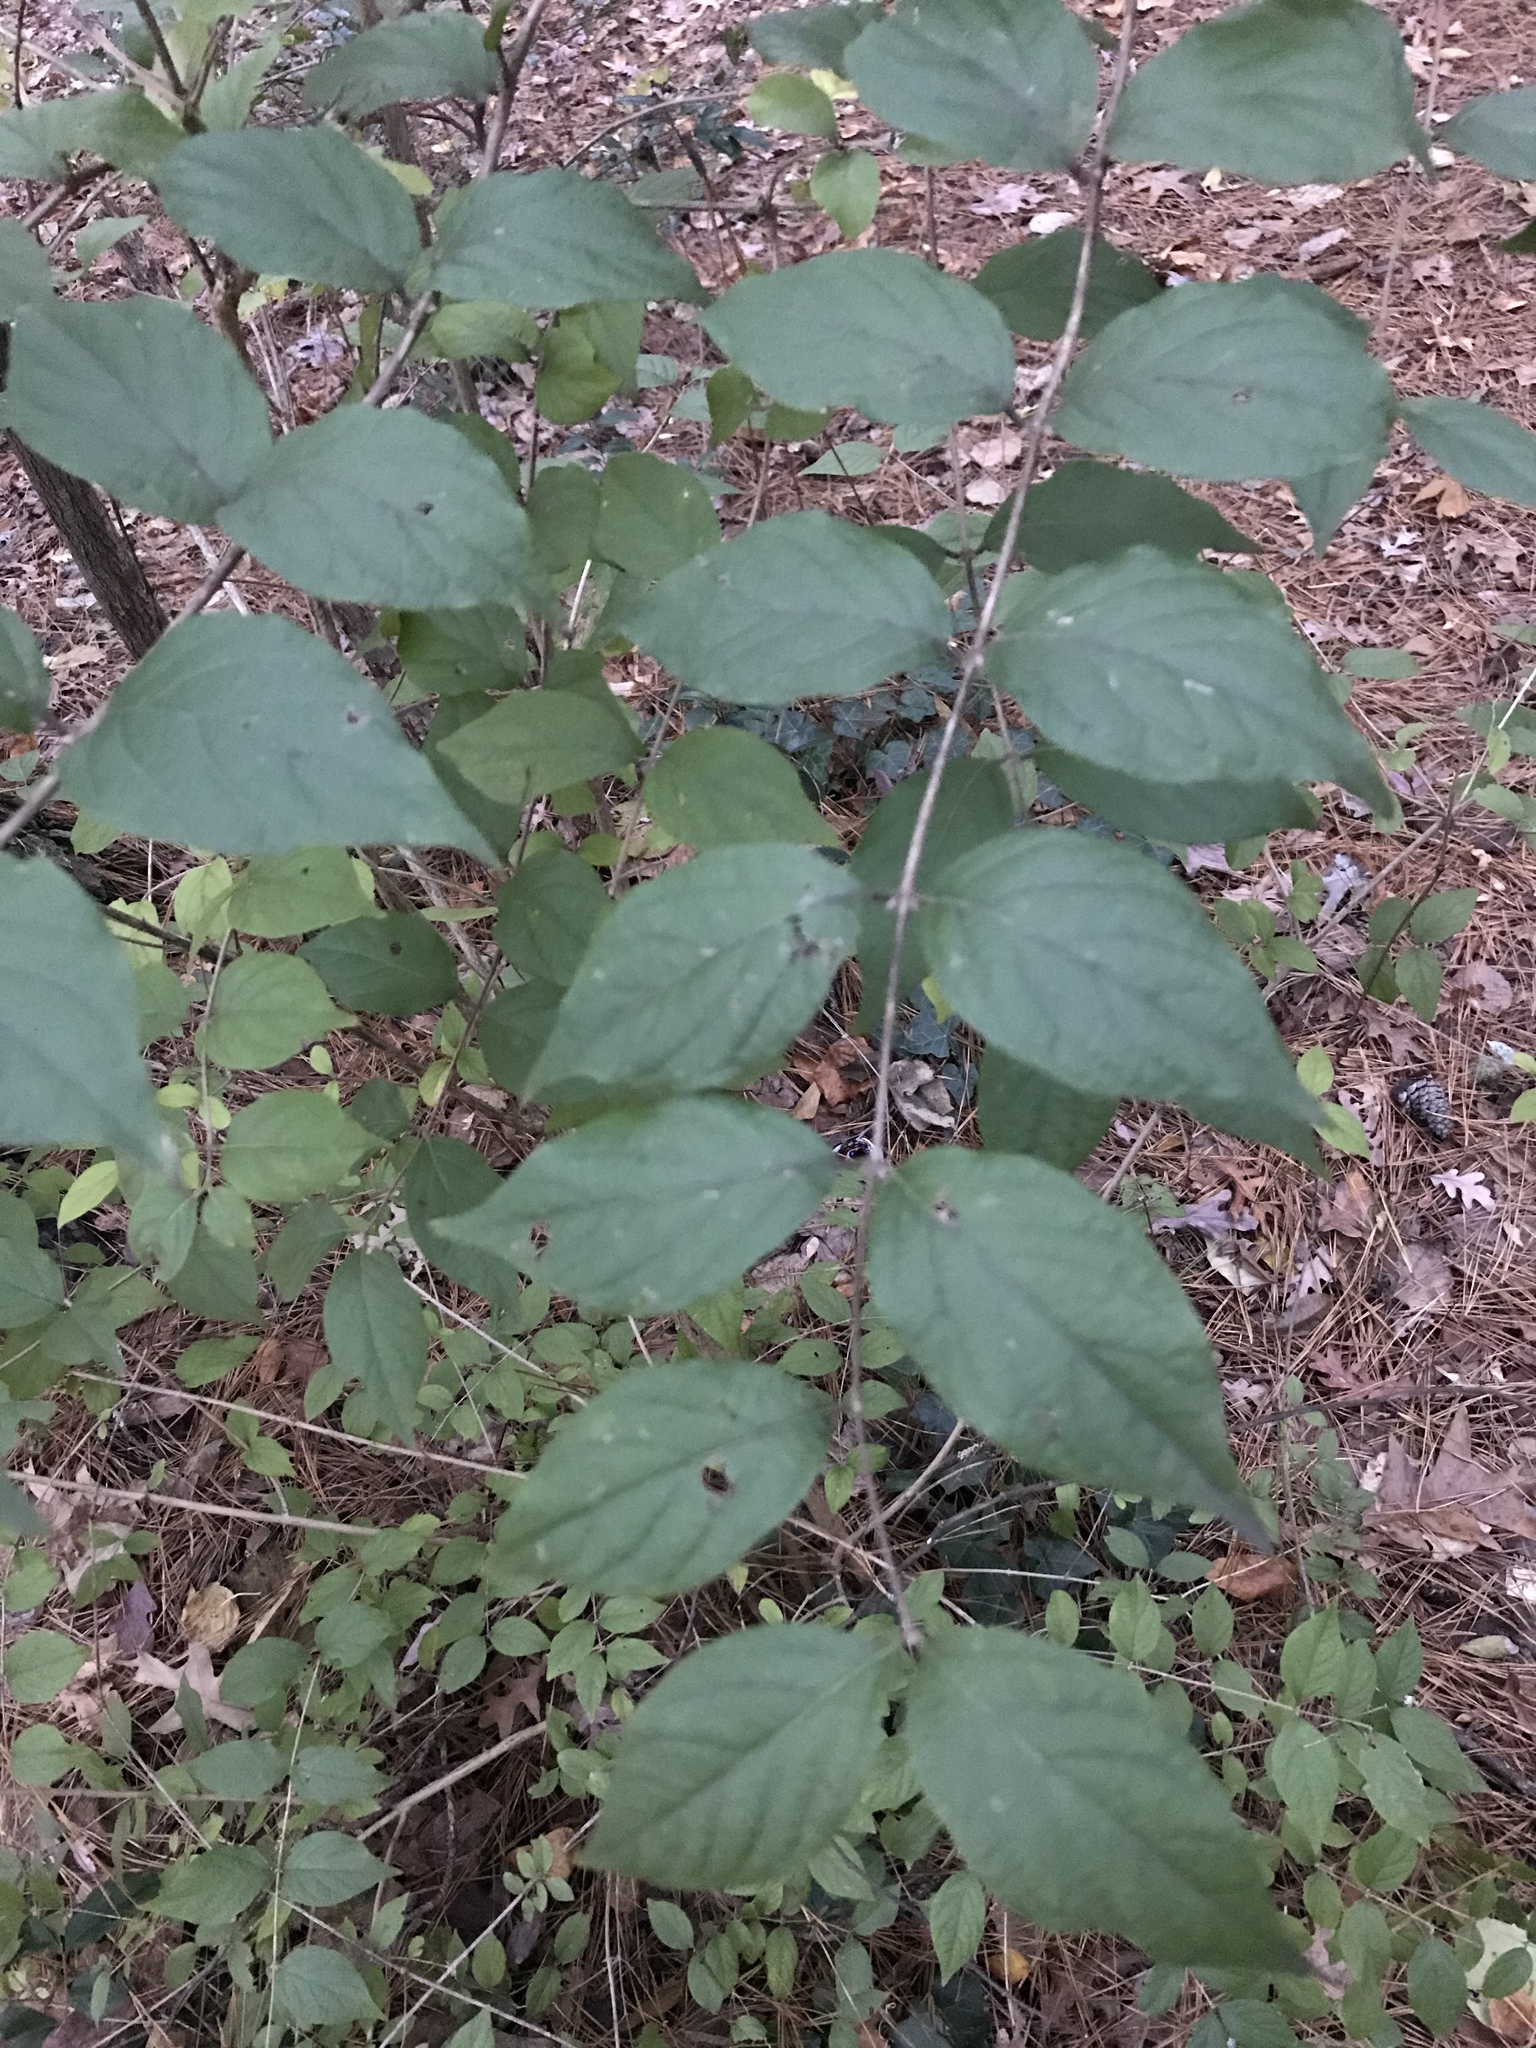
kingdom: Plantae
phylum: Tracheophyta
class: Magnoliopsida
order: Dipsacales
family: Caprifoliaceae
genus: Lonicera
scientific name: Lonicera maackii
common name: Amur honeysuckle
